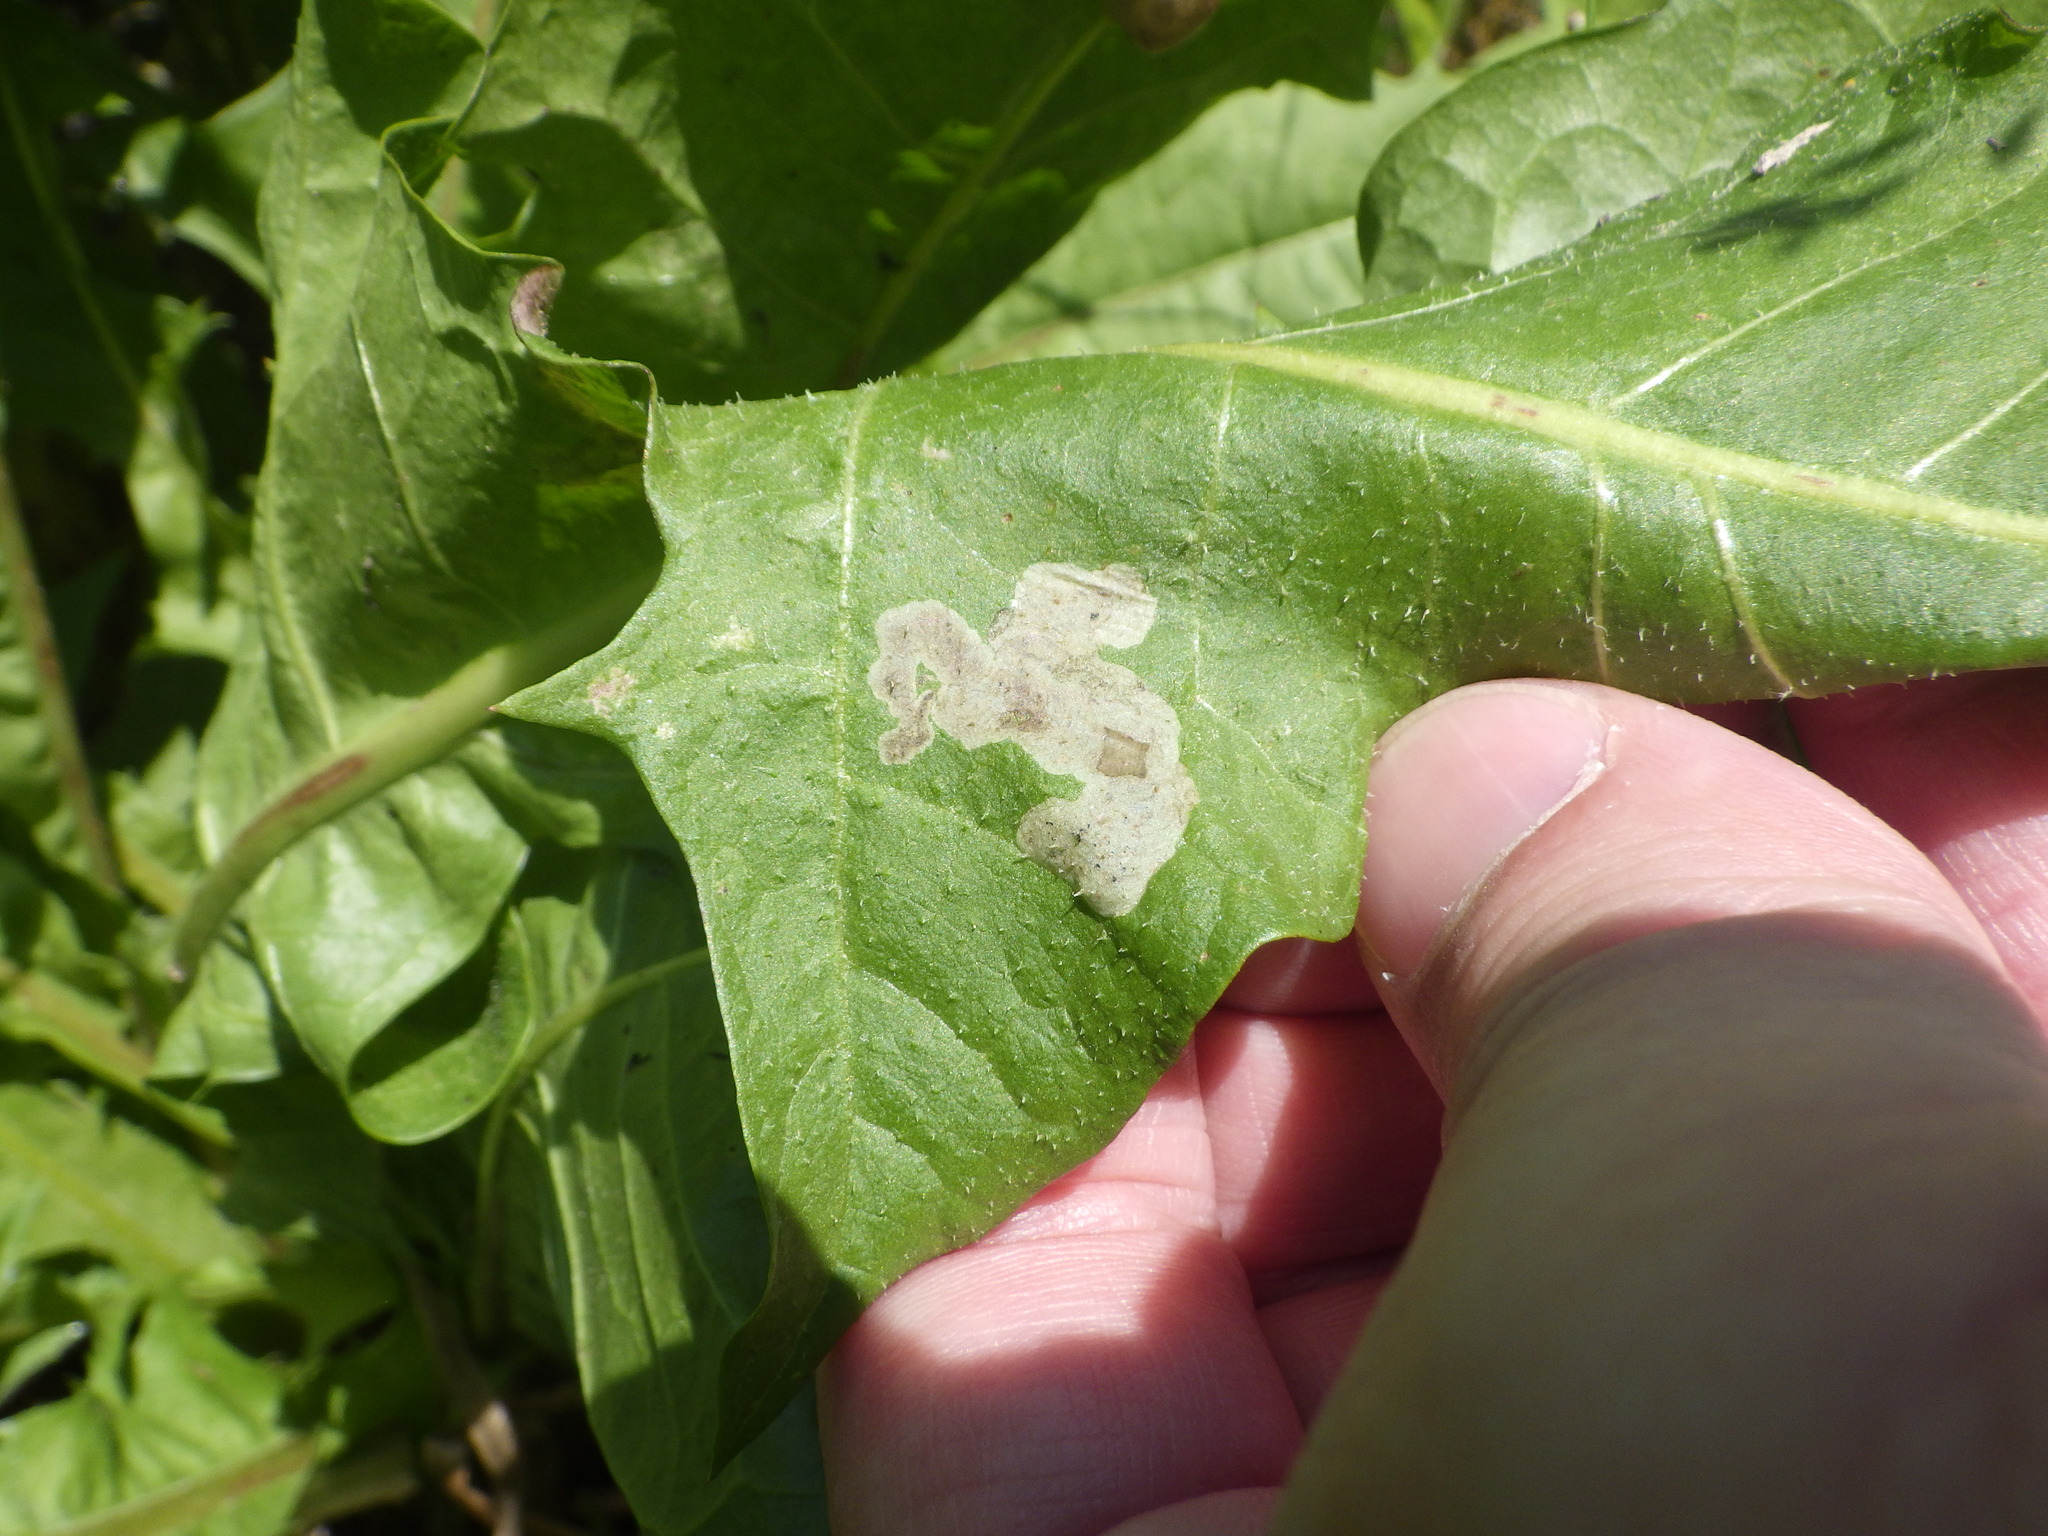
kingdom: Animalia
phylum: Arthropoda
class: Insecta
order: Diptera
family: Agromyzidae
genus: Liriomyza
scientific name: Liriomyza taraxaci
